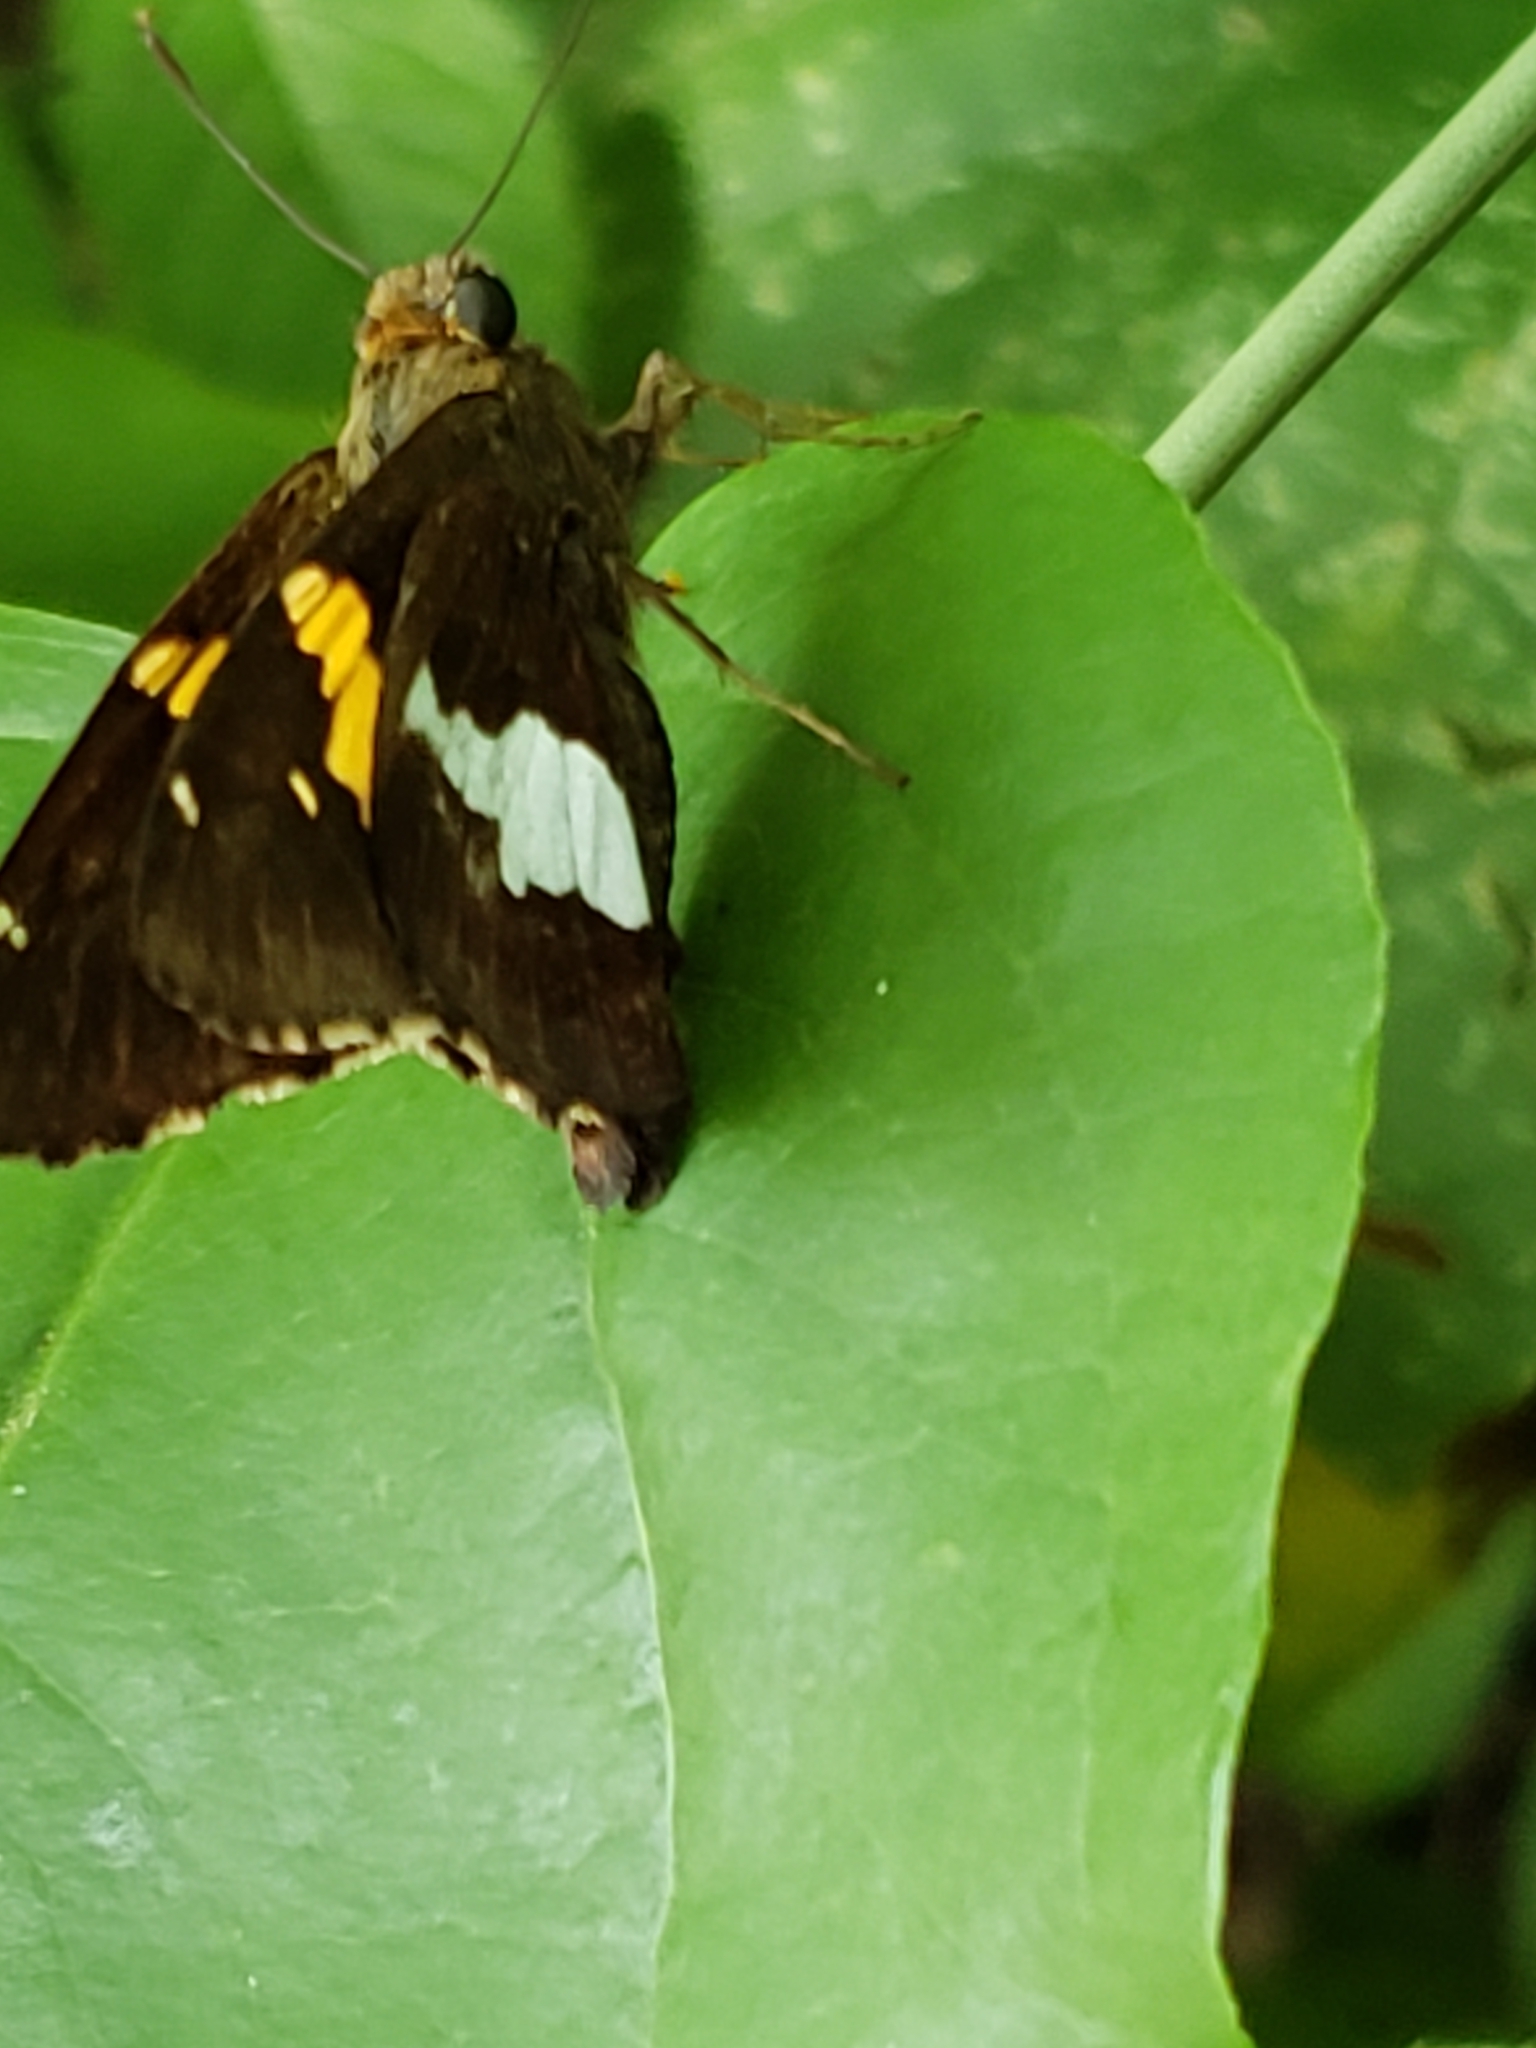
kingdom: Animalia
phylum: Arthropoda
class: Insecta
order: Lepidoptera
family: Hesperiidae
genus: Epargyreus
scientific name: Epargyreus clarus
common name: Silver-spotted skipper
